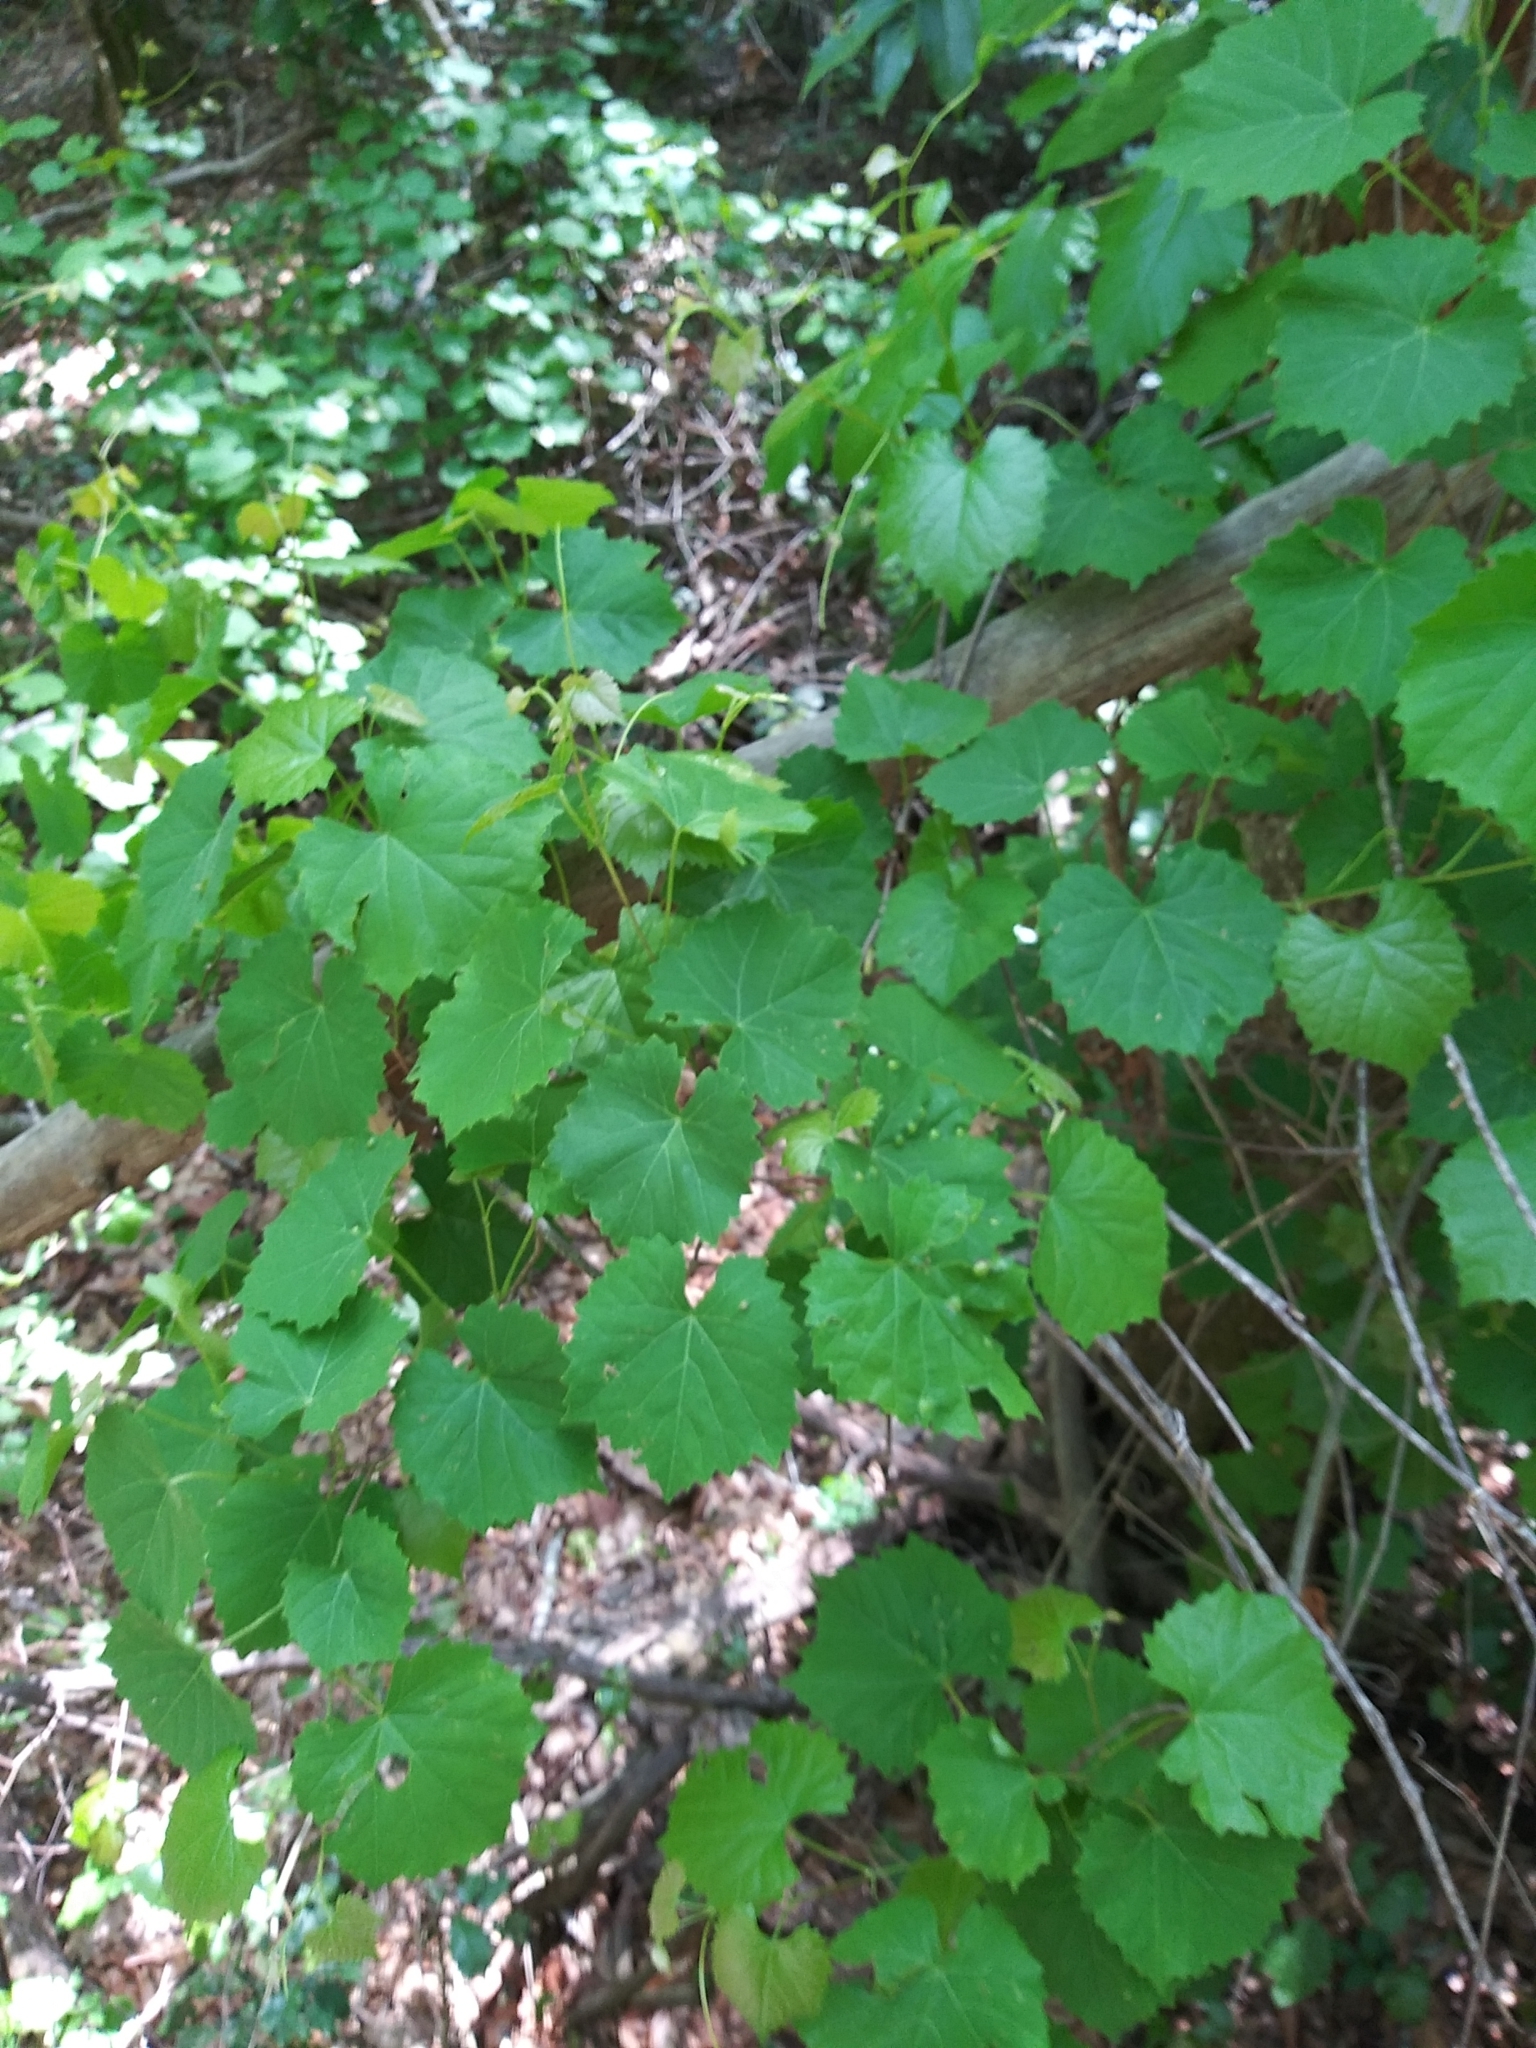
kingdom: Plantae
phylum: Tracheophyta
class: Magnoliopsida
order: Vitales
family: Vitaceae
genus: Vitis
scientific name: Vitis rotundifolia
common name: Muscadine grape
